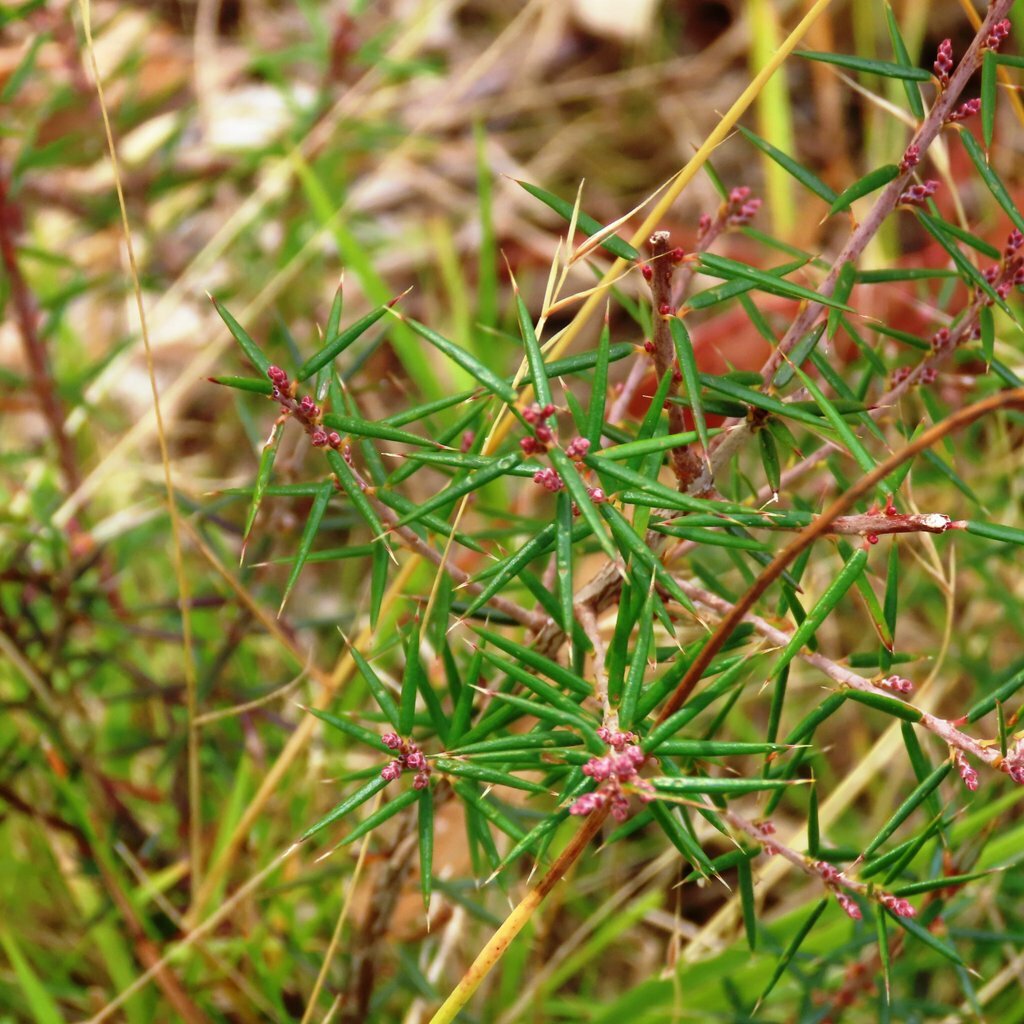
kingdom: Plantae
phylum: Tracheophyta
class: Magnoliopsida
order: Ericales
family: Ericaceae
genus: Lissanthe
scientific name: Lissanthe strigosa
